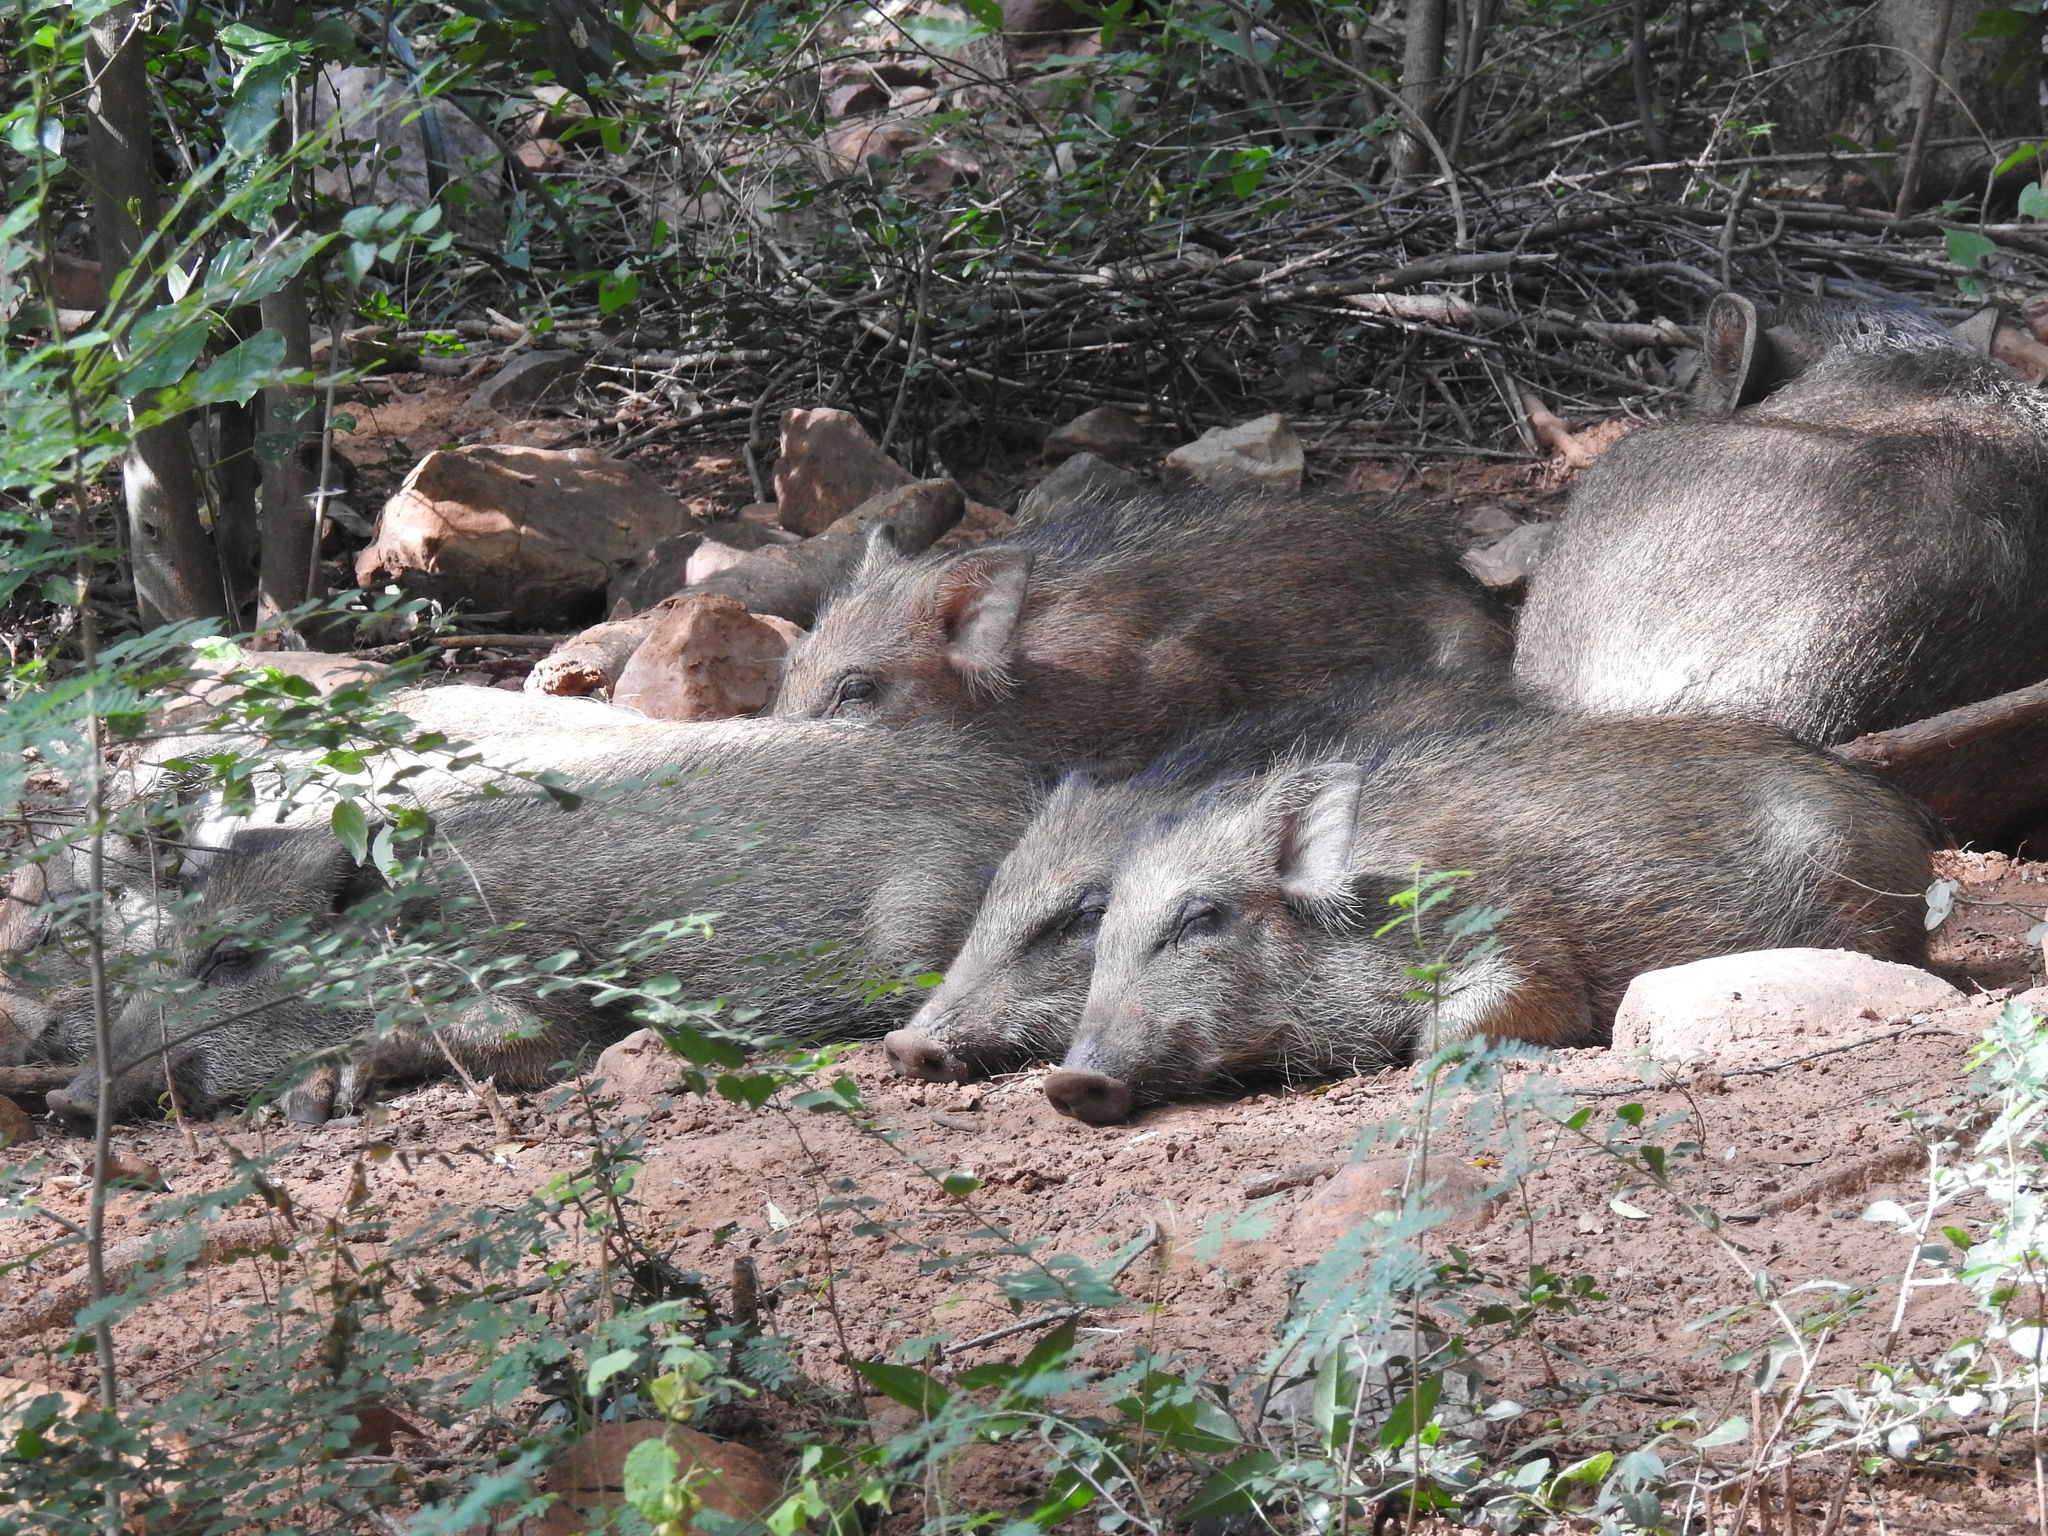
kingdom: Animalia
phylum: Chordata
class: Mammalia
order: Artiodactyla
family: Suidae
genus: Sus
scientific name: Sus scrofa
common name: Wild boar
